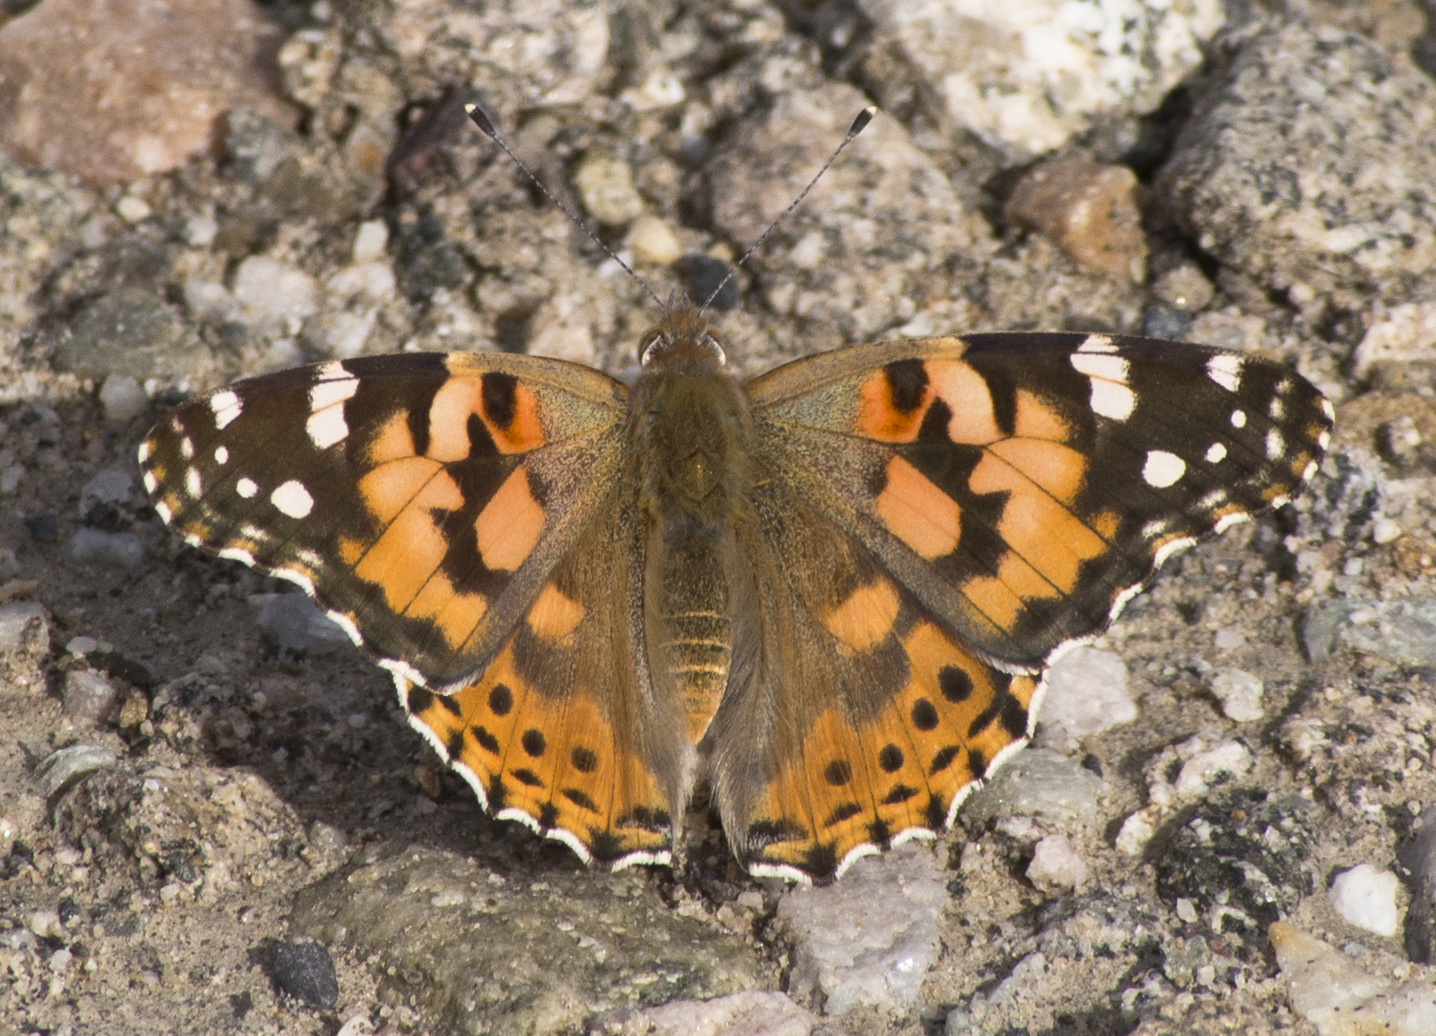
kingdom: Animalia
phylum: Arthropoda
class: Insecta
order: Lepidoptera
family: Nymphalidae
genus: Vanessa
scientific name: Vanessa cardui
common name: Painted lady
